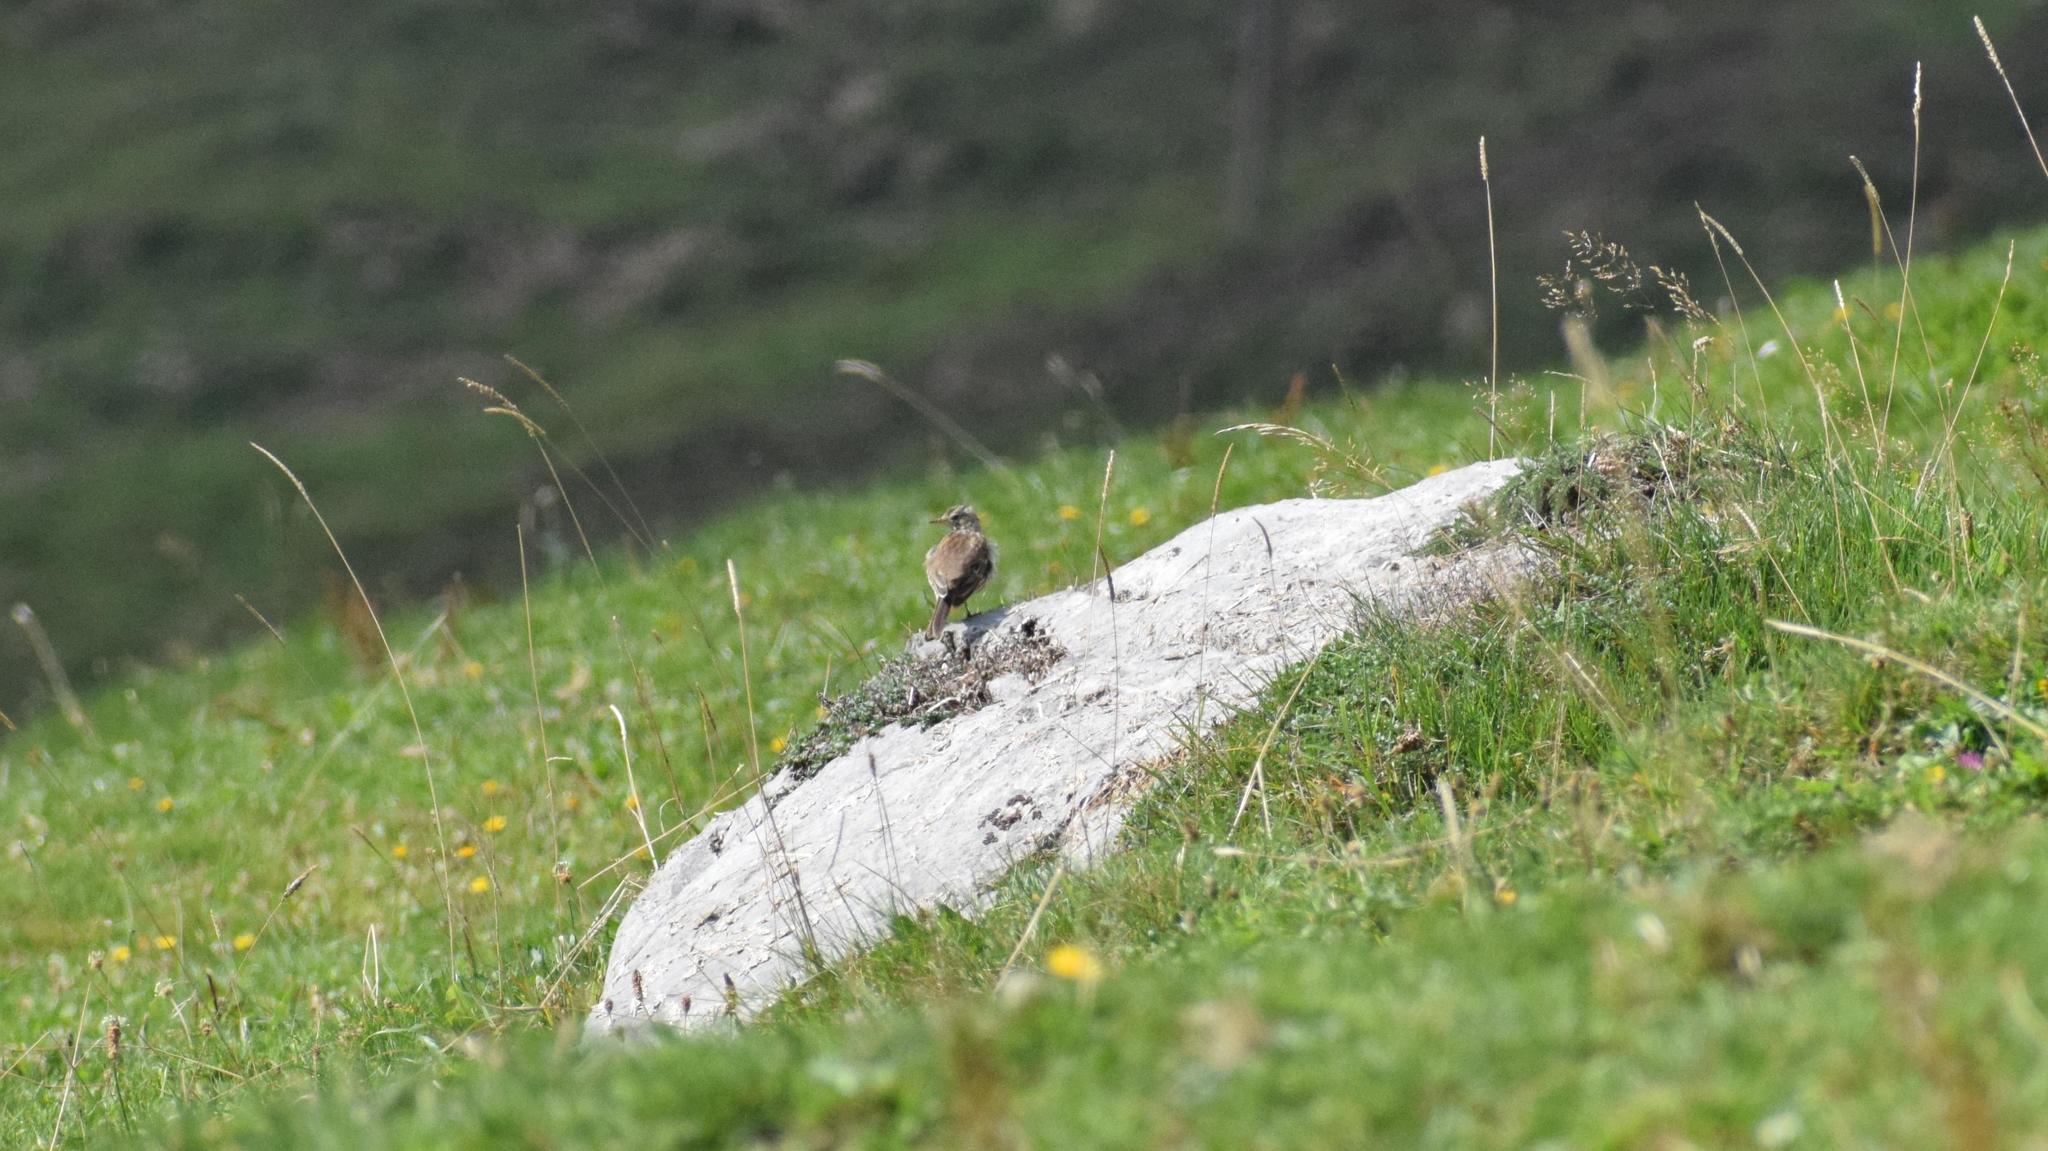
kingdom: Animalia
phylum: Chordata
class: Aves
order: Passeriformes
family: Motacillidae
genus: Anthus
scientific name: Anthus spinoletta
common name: Water pipit
